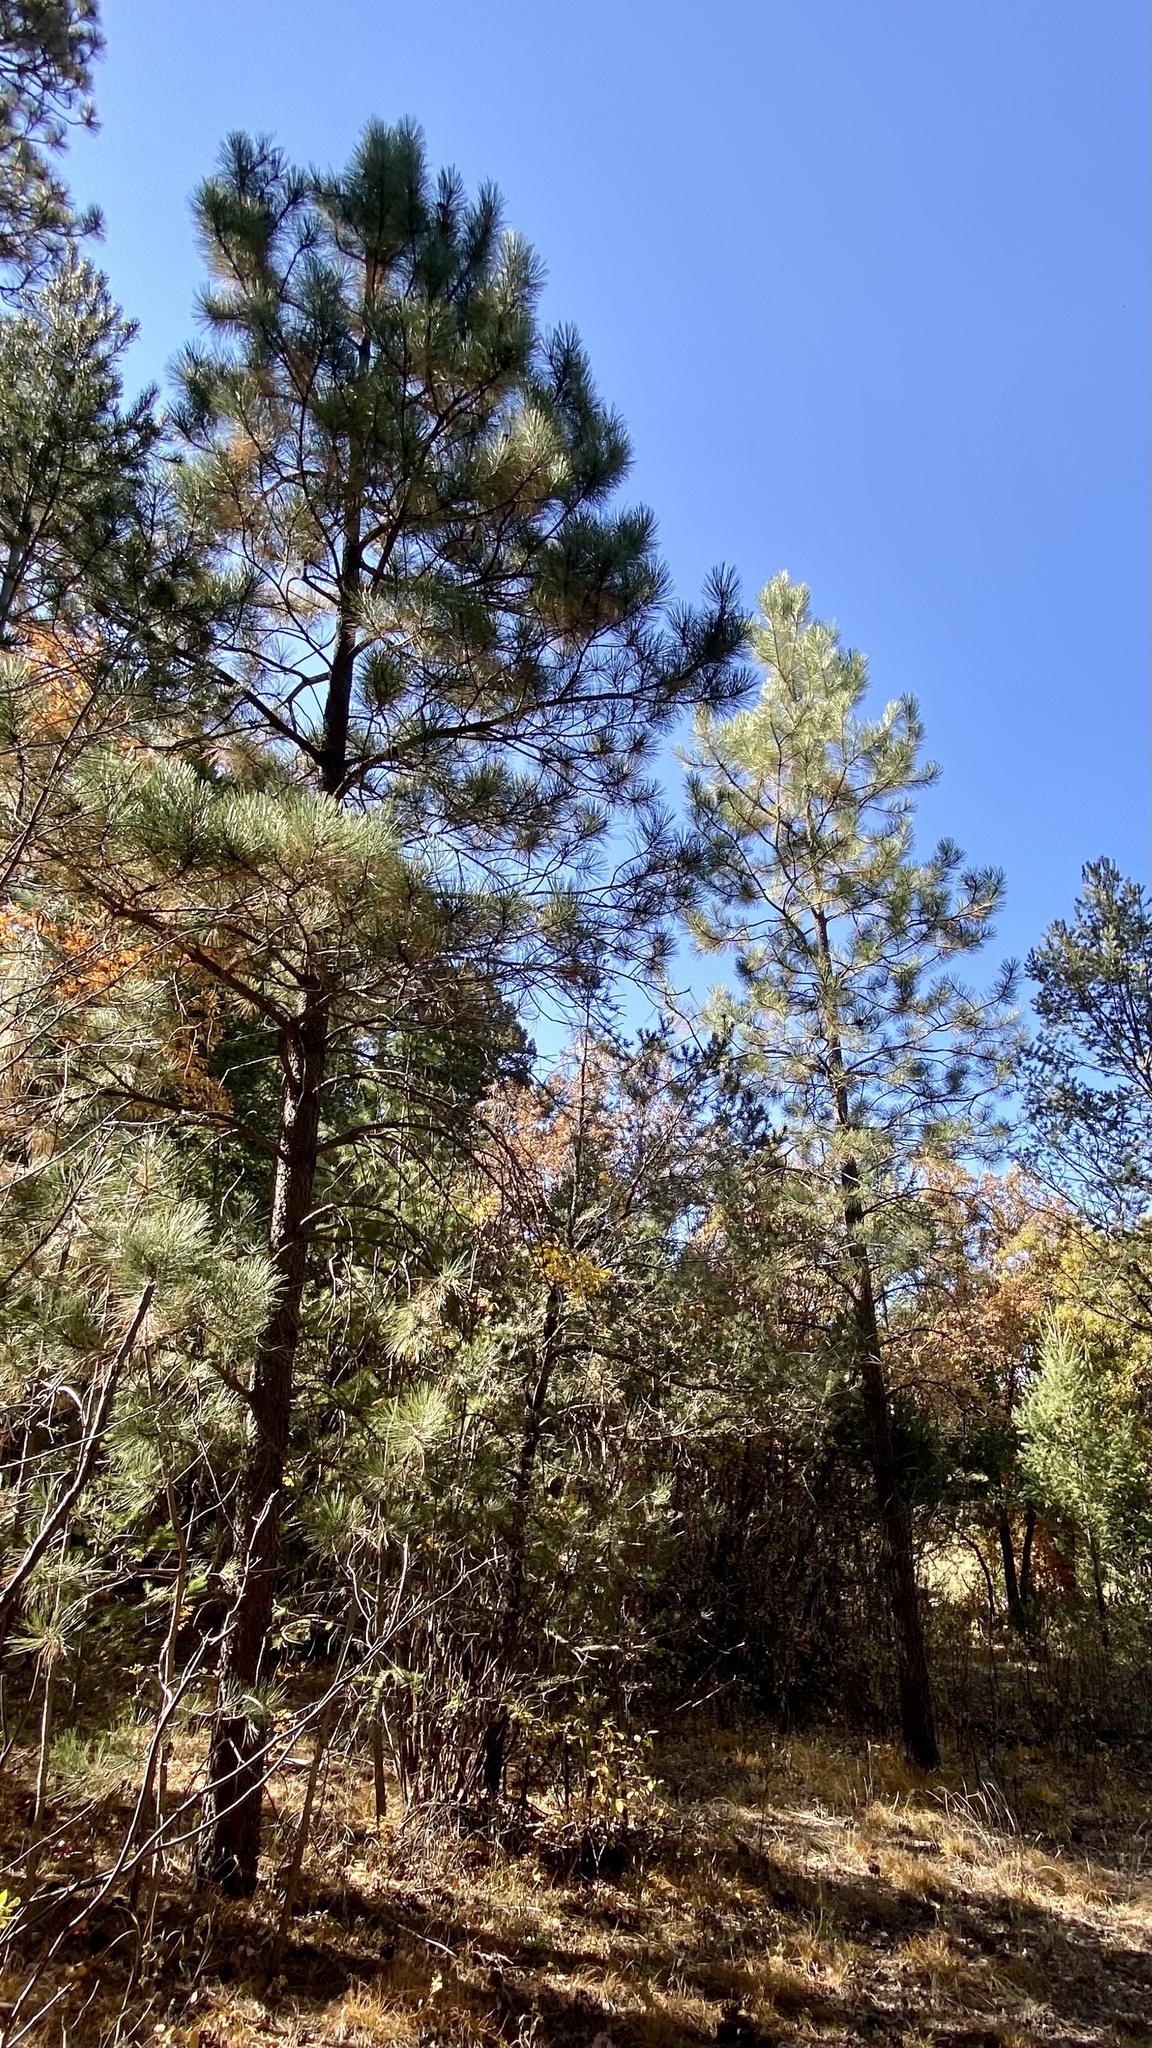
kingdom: Plantae
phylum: Tracheophyta
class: Pinopsida
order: Pinales
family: Pinaceae
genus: Pinus
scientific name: Pinus ponderosa
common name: Western yellow-pine
